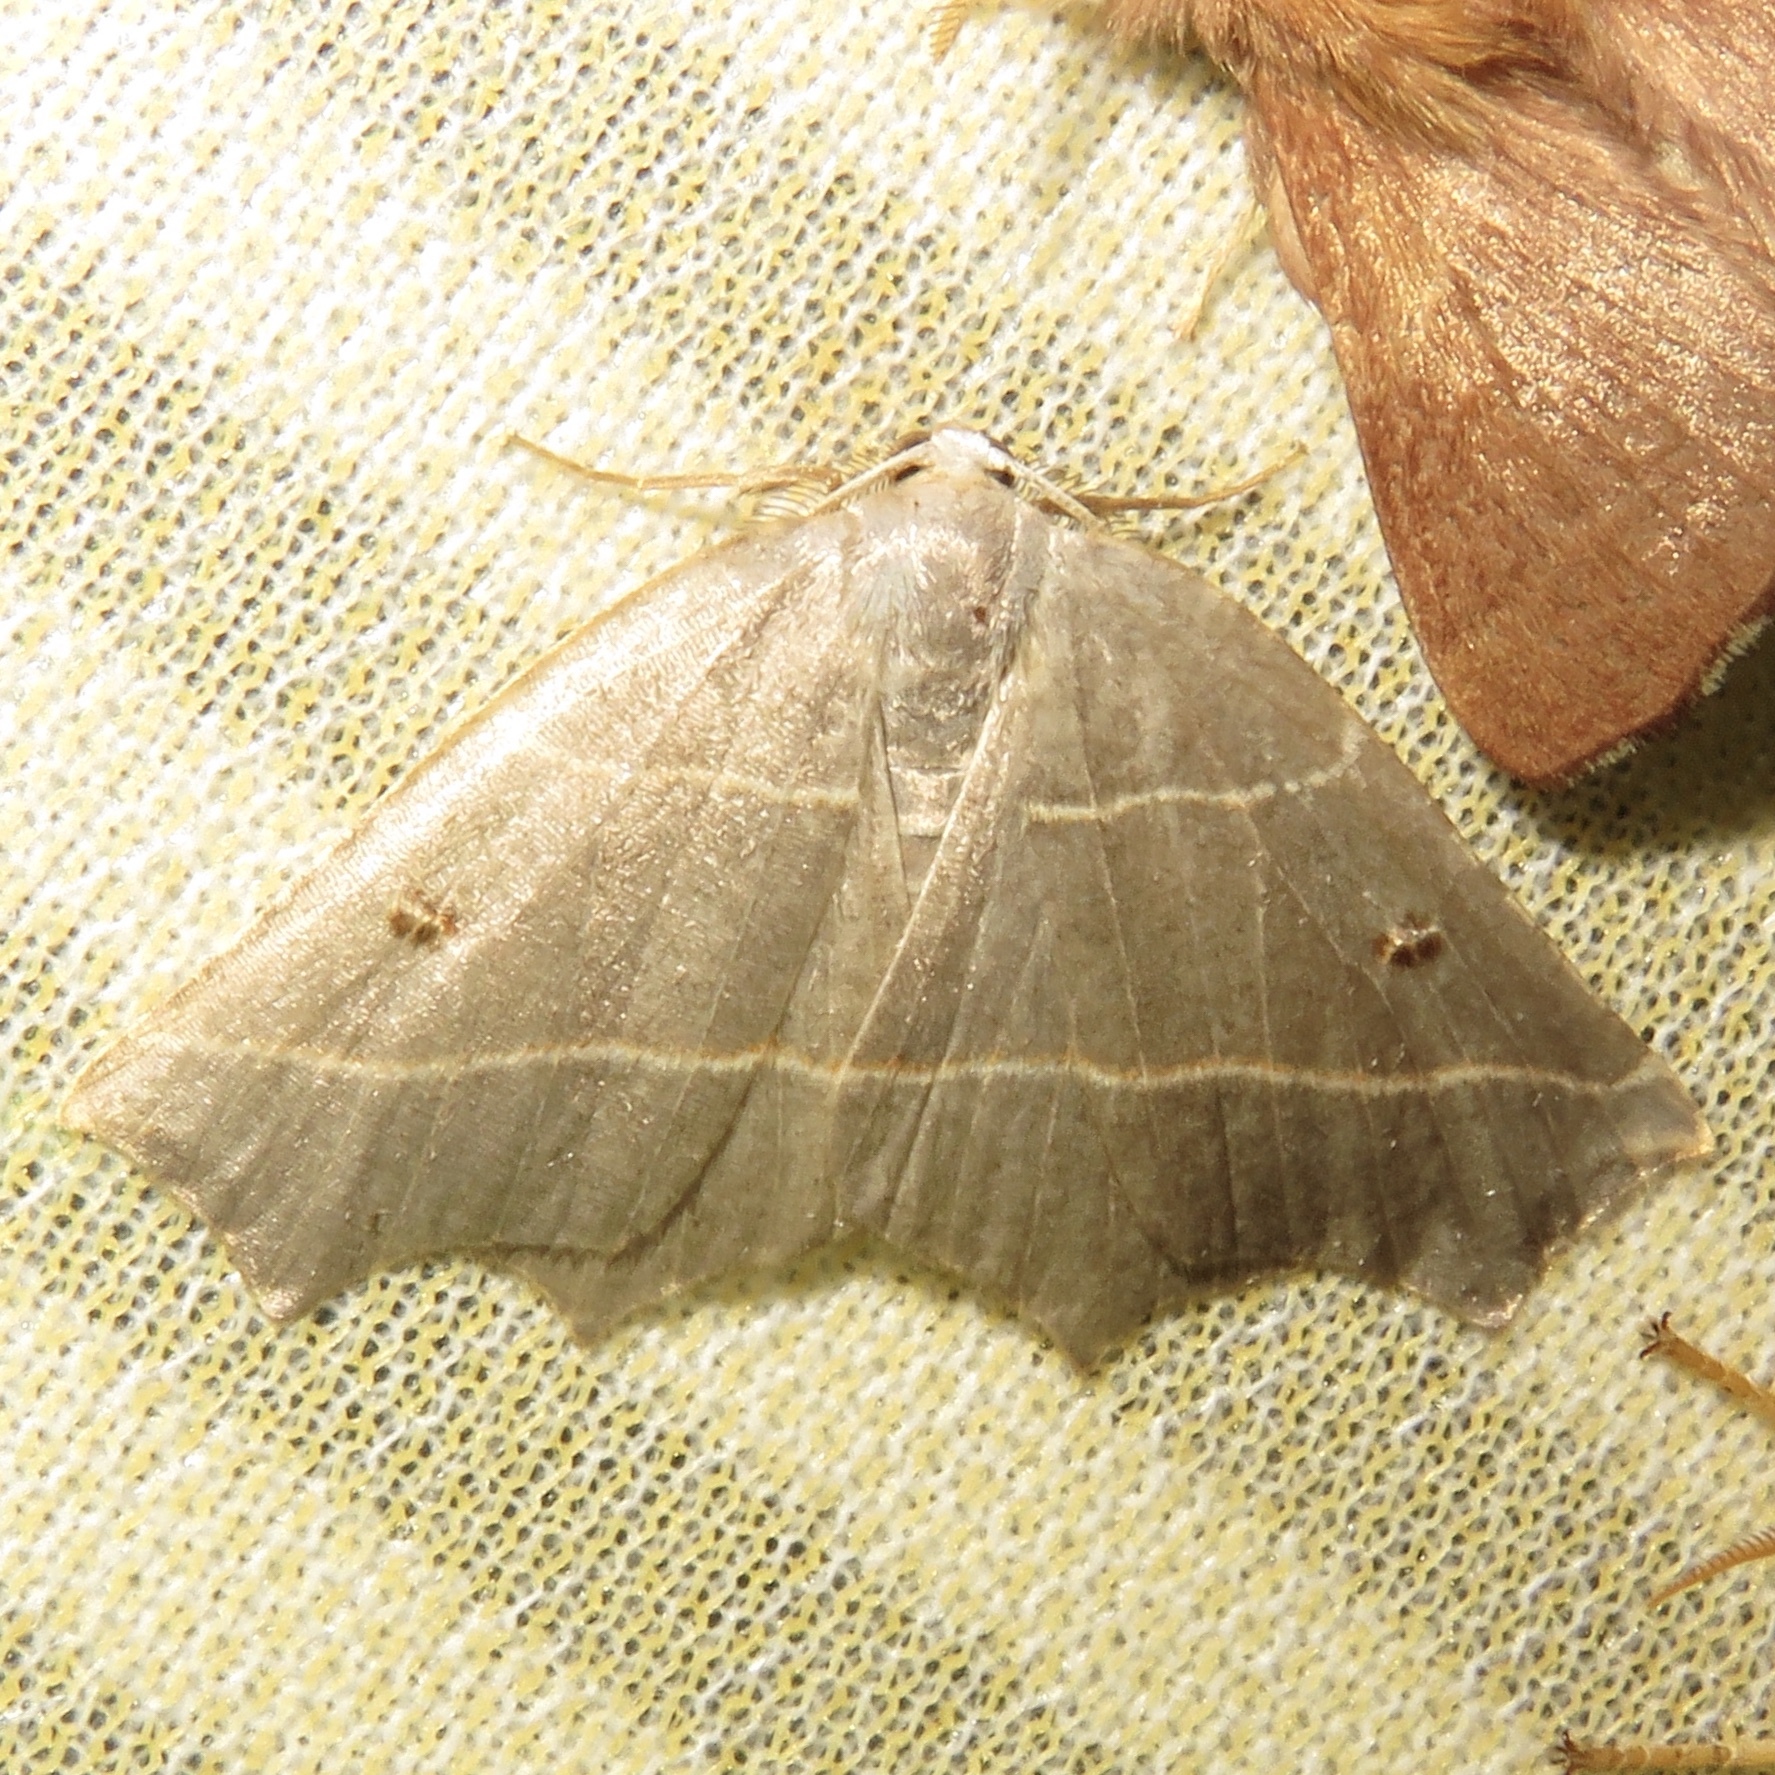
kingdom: Animalia
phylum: Arthropoda
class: Insecta
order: Lepidoptera
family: Geometridae
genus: Metanema
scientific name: Metanema inatomaria
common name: Pale metanema
